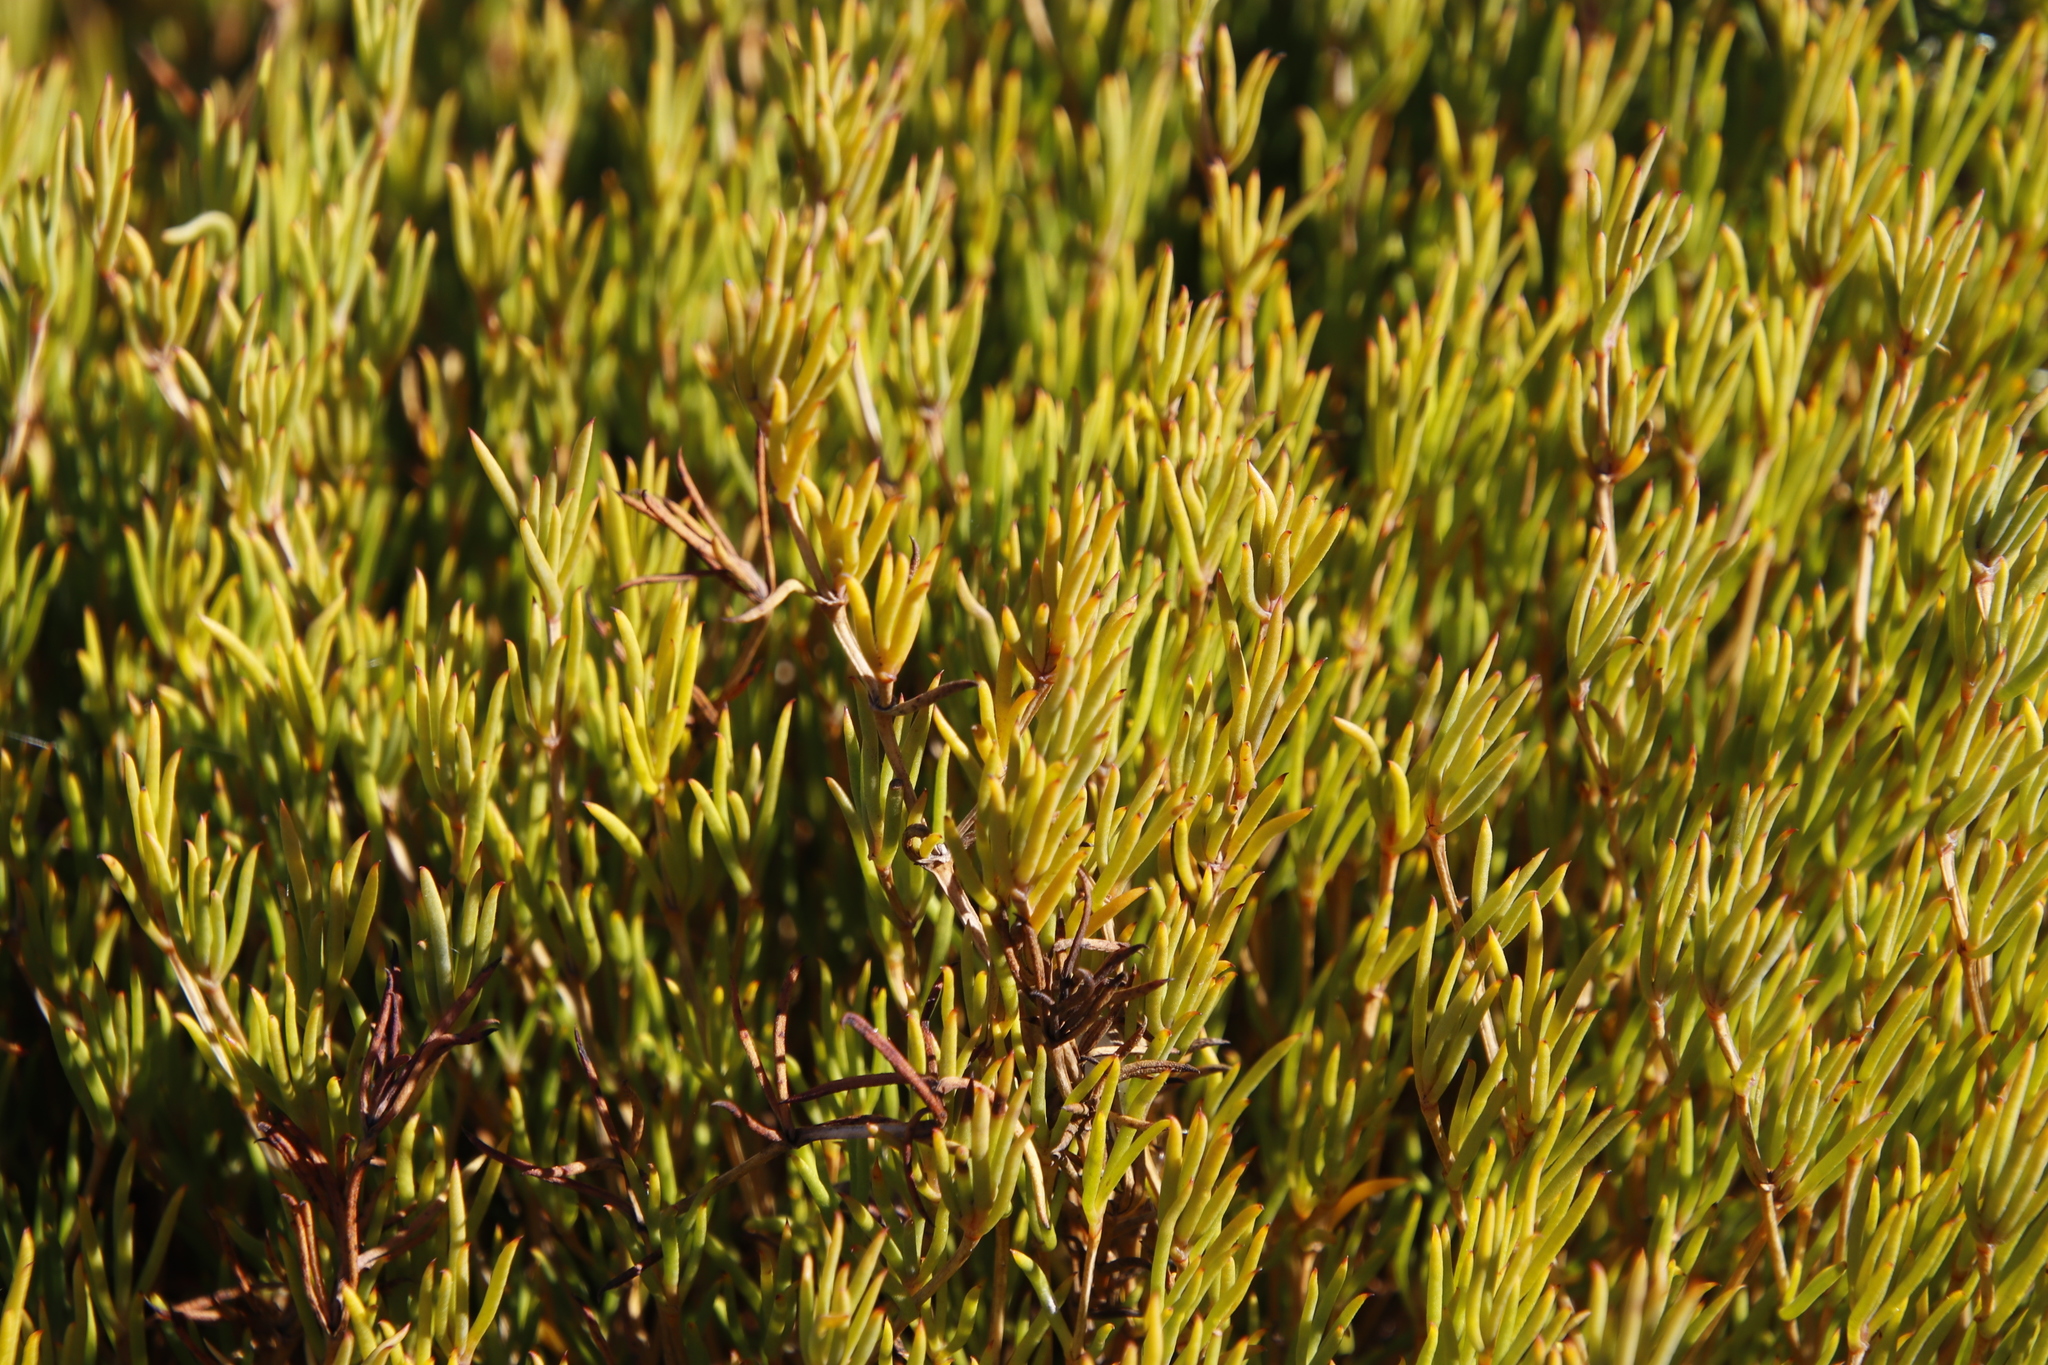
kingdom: Plantae
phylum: Tracheophyta
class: Magnoliopsida
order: Caryophyllales
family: Aizoaceae
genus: Acrosanthes
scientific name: Acrosanthes teretifolia
